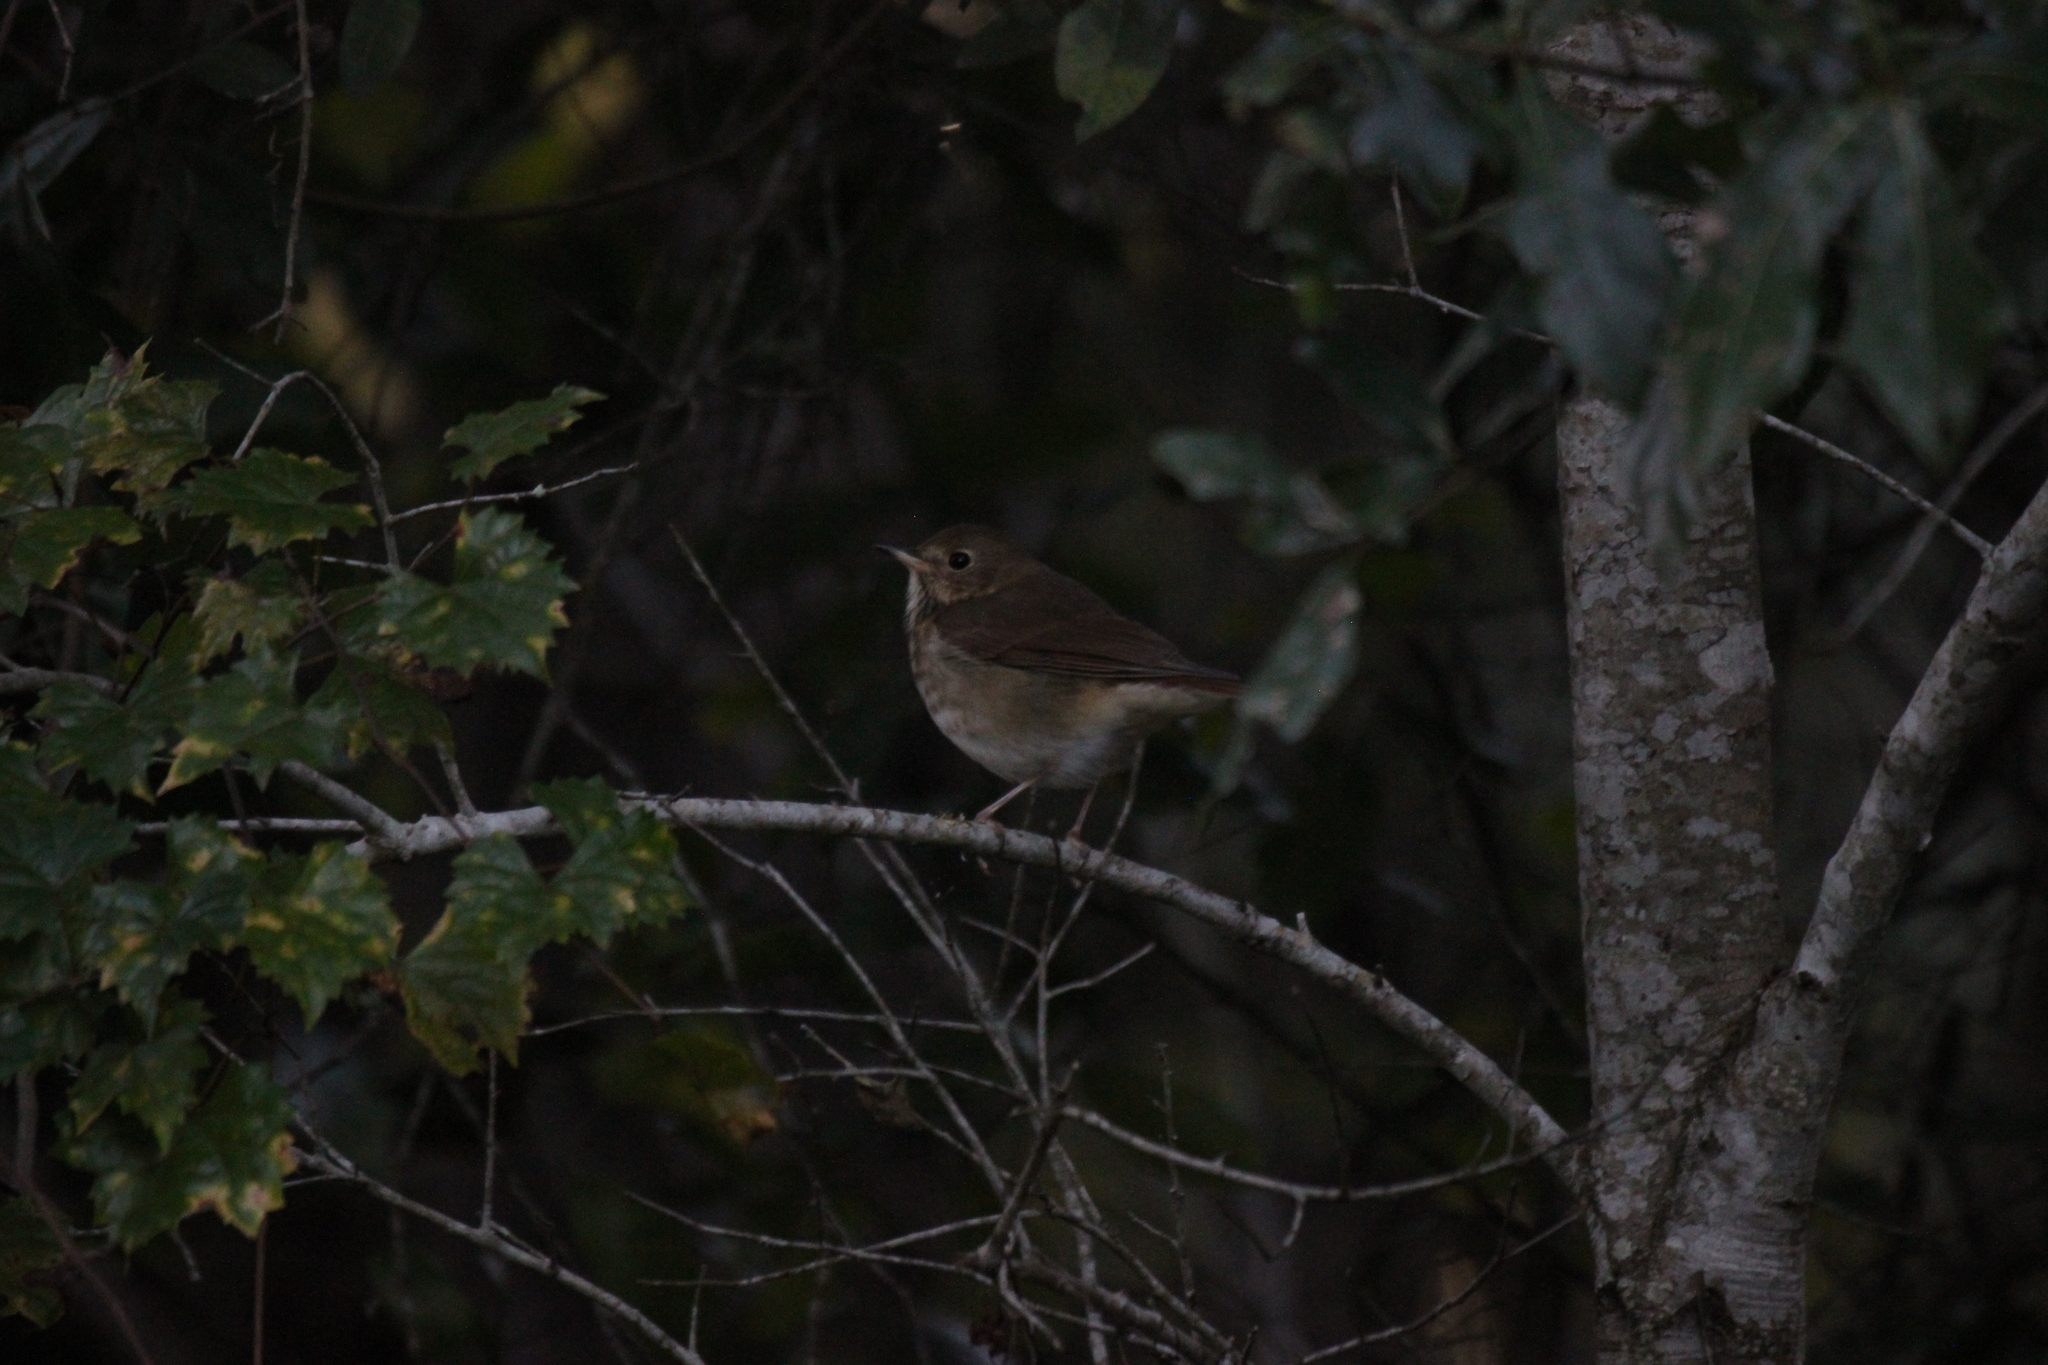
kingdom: Animalia
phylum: Chordata
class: Aves
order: Passeriformes
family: Turdidae
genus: Catharus
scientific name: Catharus guttatus
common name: Hermit thrush
